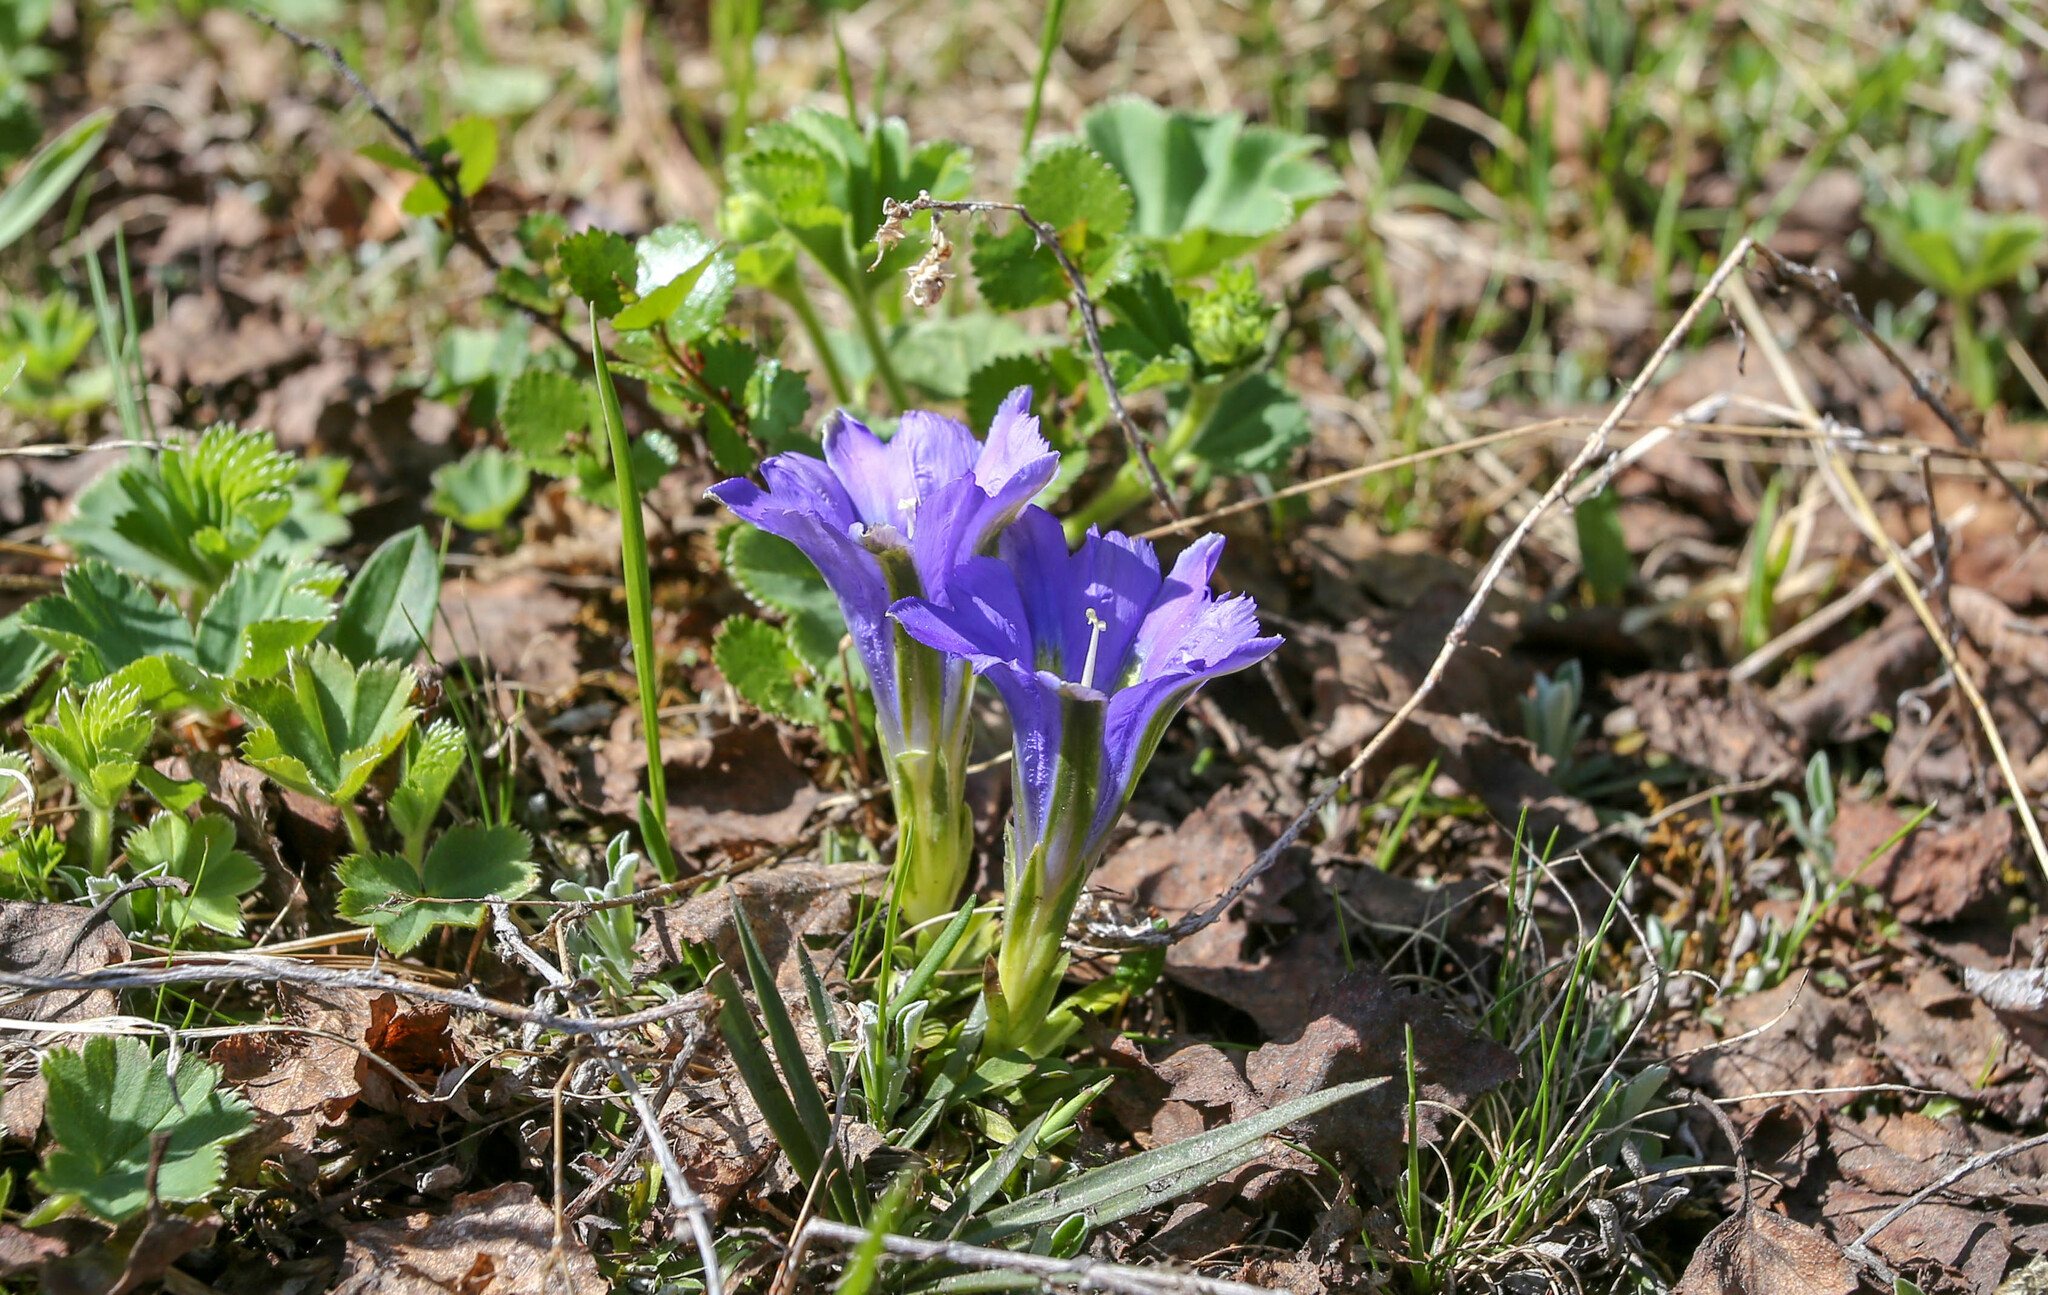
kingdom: Plantae
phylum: Tracheophyta
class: Magnoliopsida
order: Gentianales
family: Gentianaceae
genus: Gentiana
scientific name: Gentiana grandiflora
